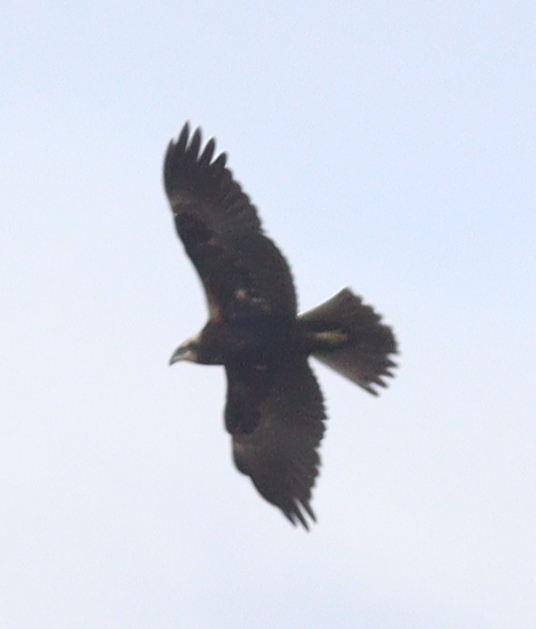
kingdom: Animalia
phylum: Chordata
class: Aves
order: Accipitriformes
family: Accipitridae
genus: Circus
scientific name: Circus aeruginosus
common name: Western marsh harrier
